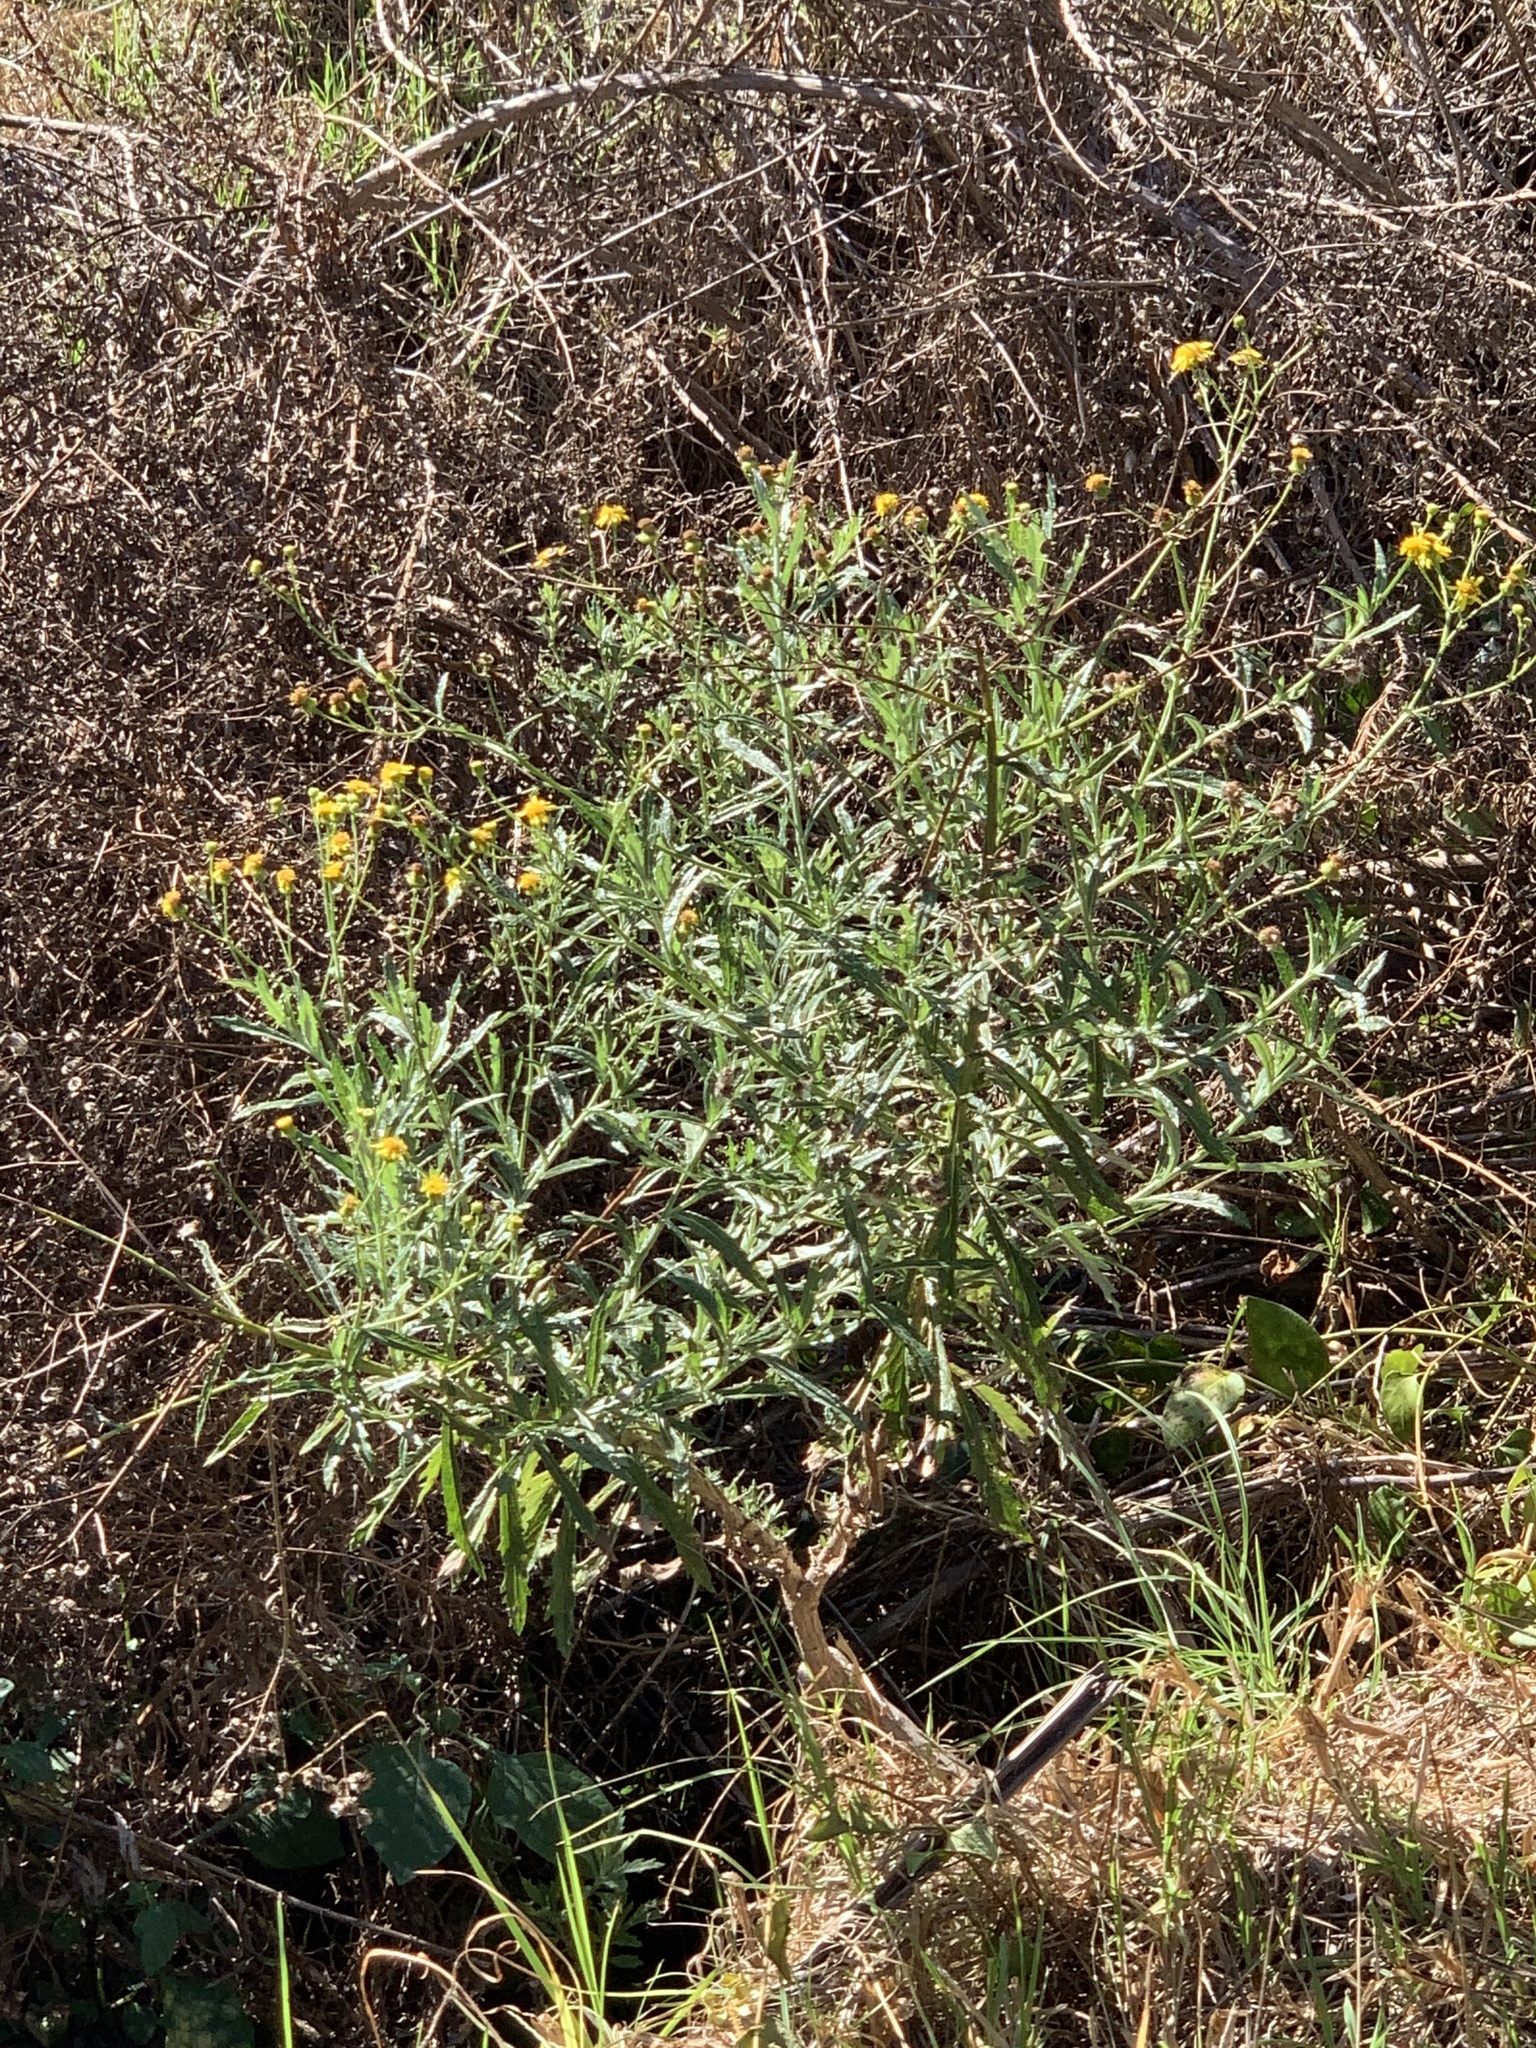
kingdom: Plantae
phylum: Tracheophyta
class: Magnoliopsida
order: Asterales
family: Asteraceae
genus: Senecio
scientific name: Senecio pterophorus
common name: Shoddy ragwort
